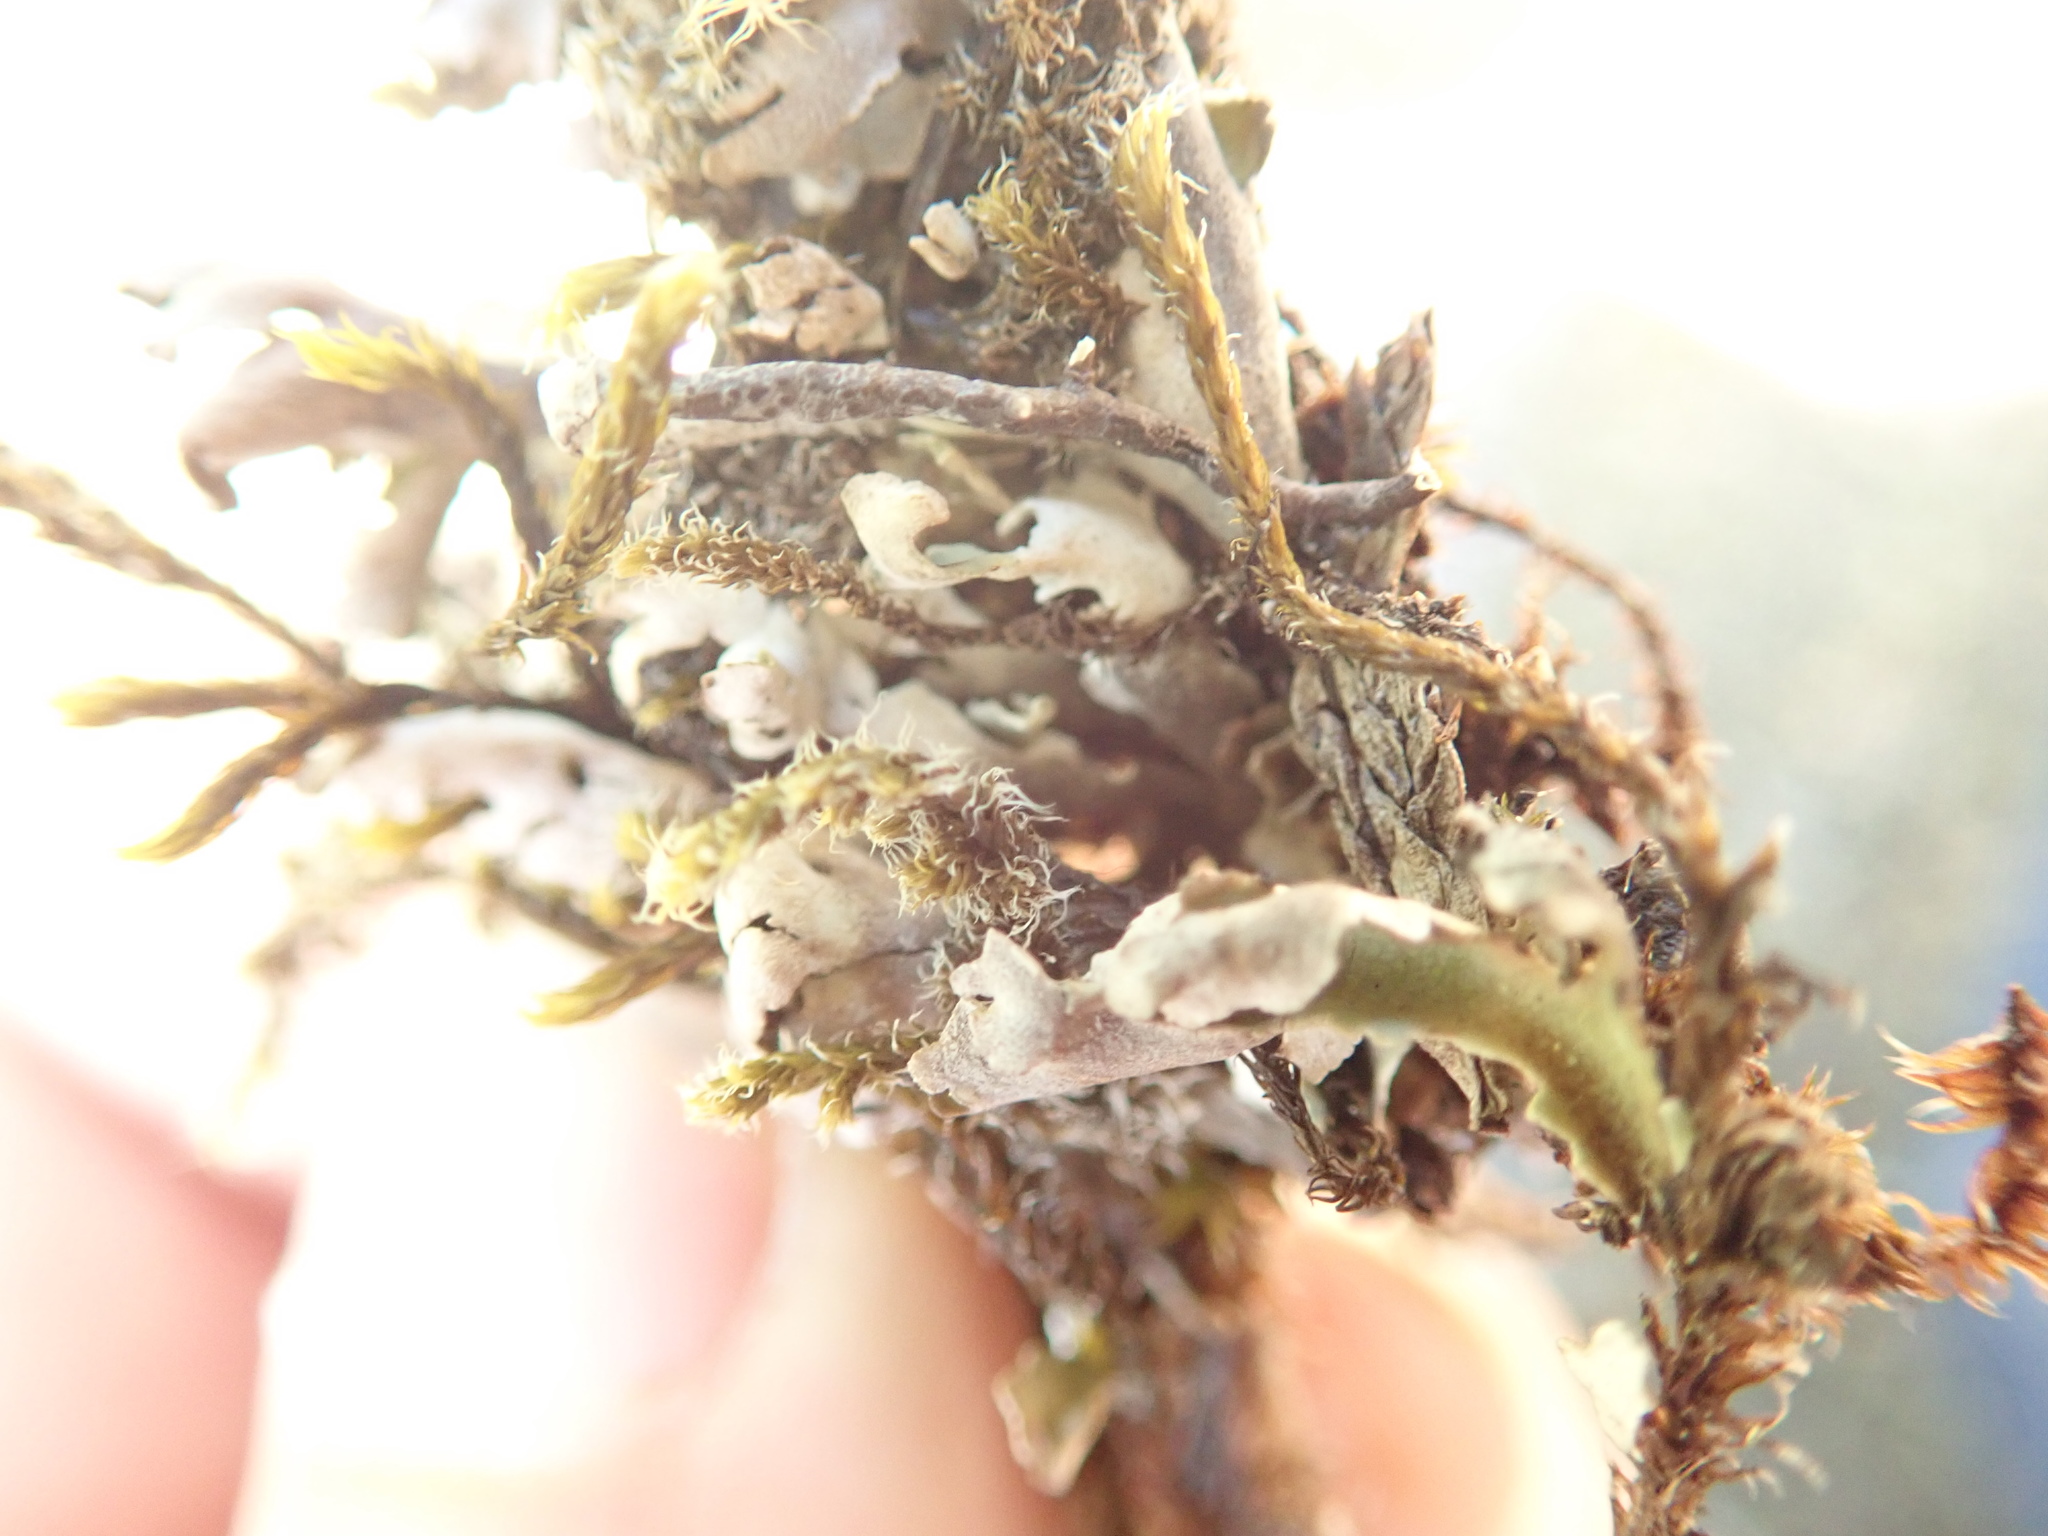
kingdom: Fungi
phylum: Ascomycota
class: Lecanoromycetes
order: Lecanorales
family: Cladoniaceae
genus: Cladonia
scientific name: Cladonia
